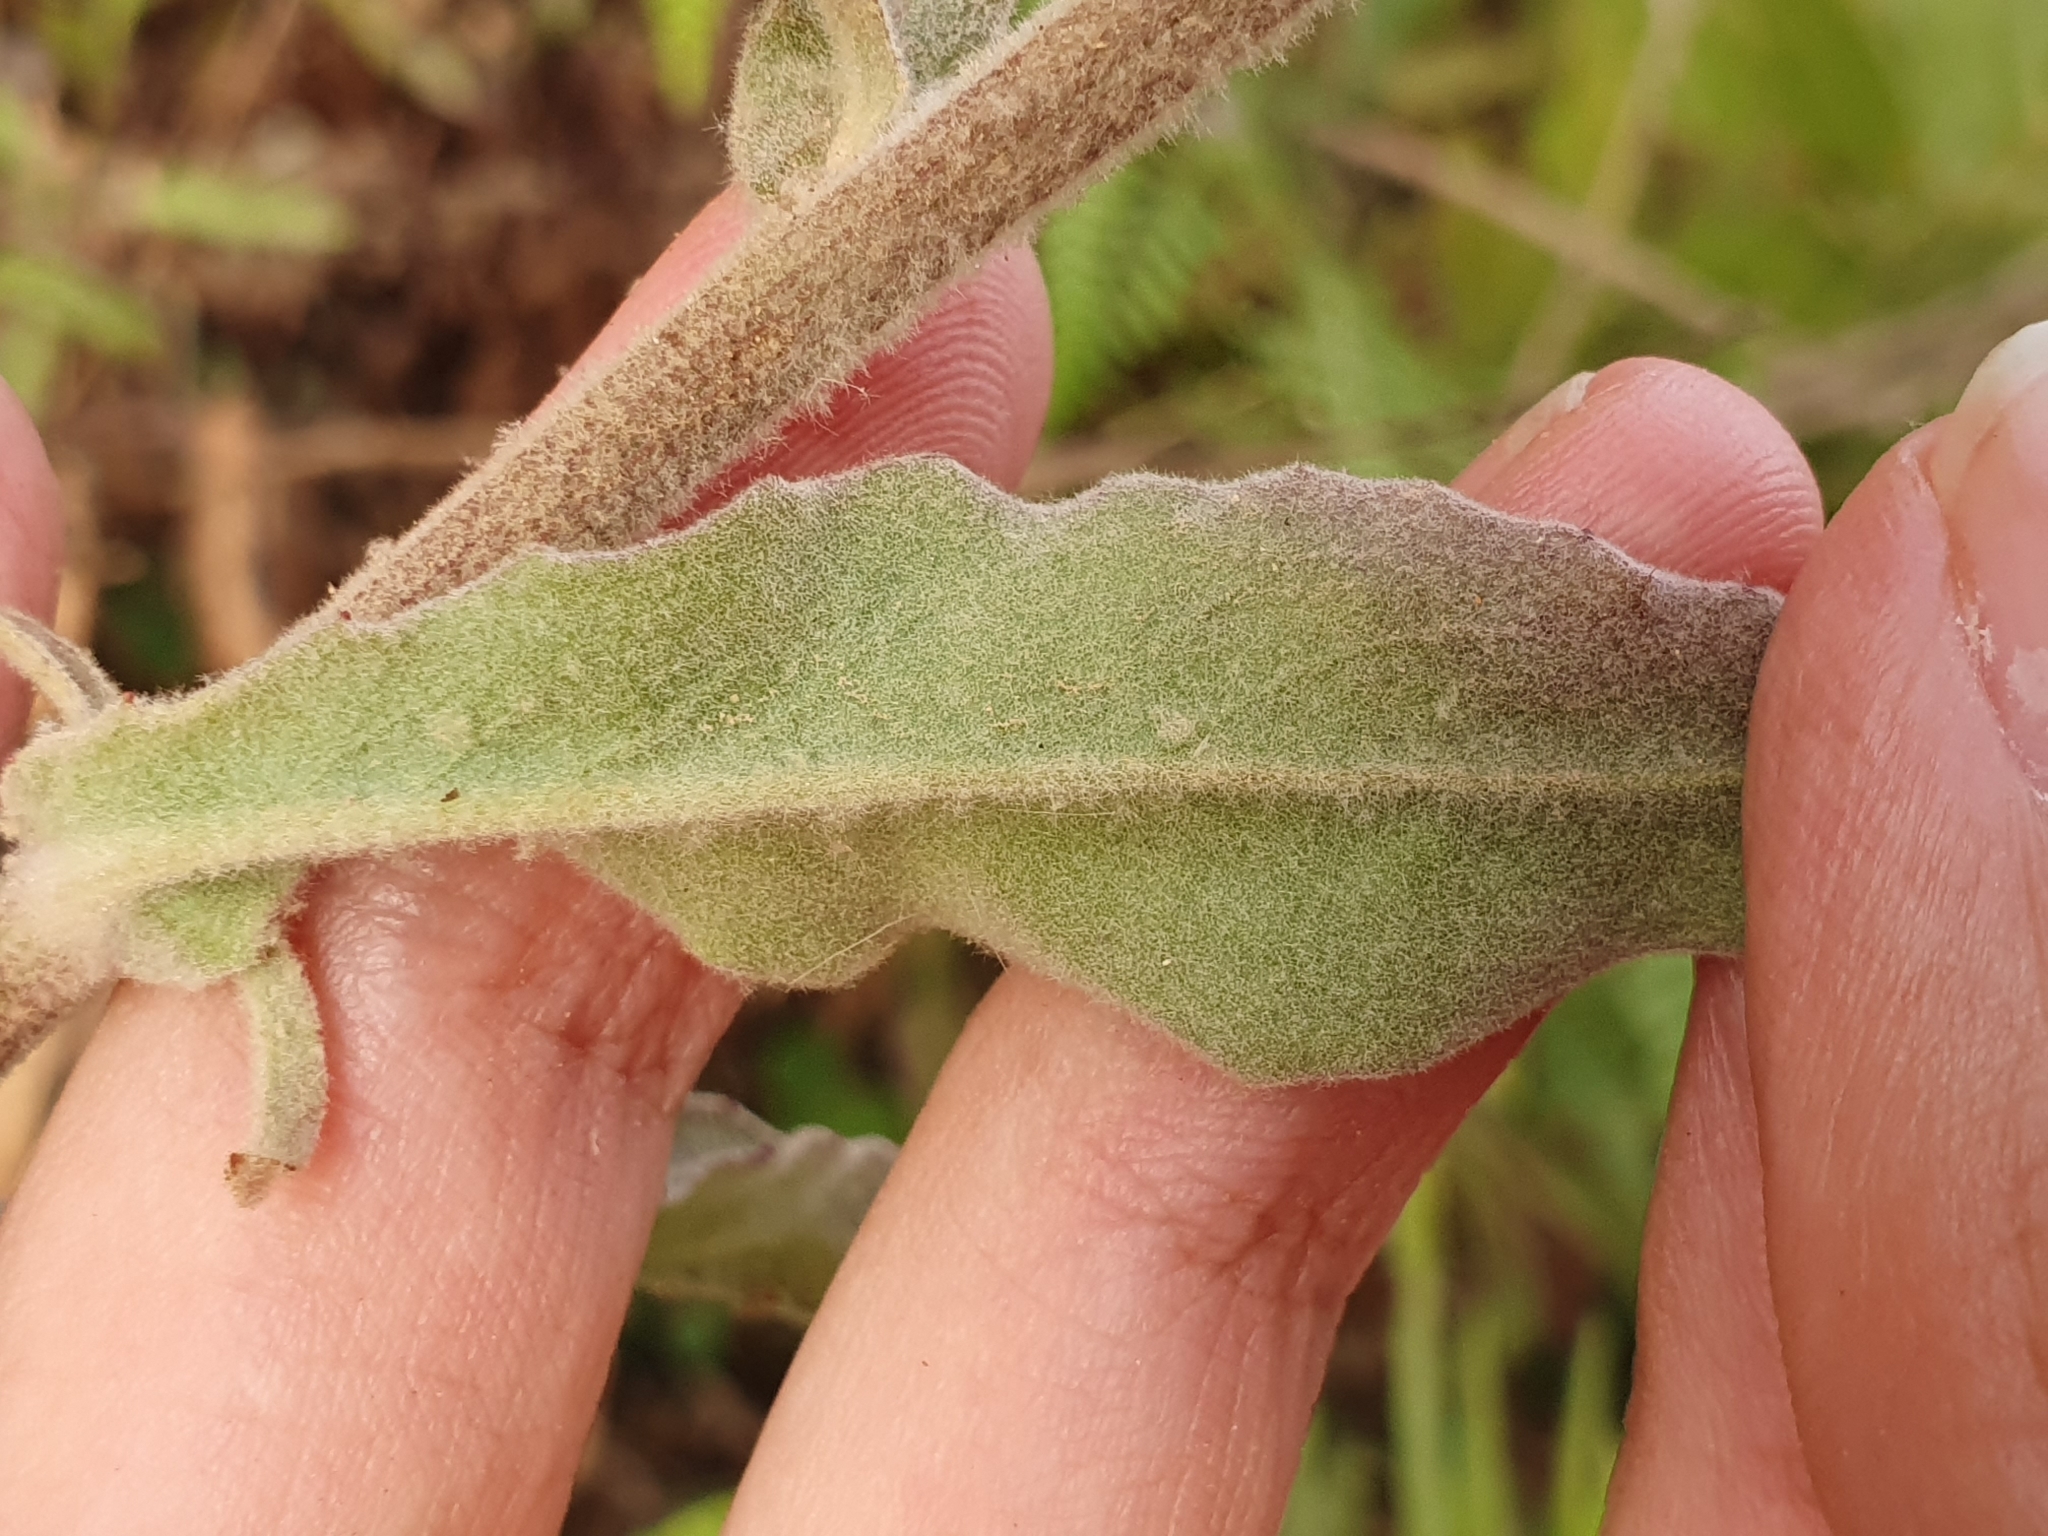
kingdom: Plantae
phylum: Tracheophyta
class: Magnoliopsida
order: Asterales
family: Asteraceae
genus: Andryala
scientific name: Andryala integrifolia
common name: Common andryala
